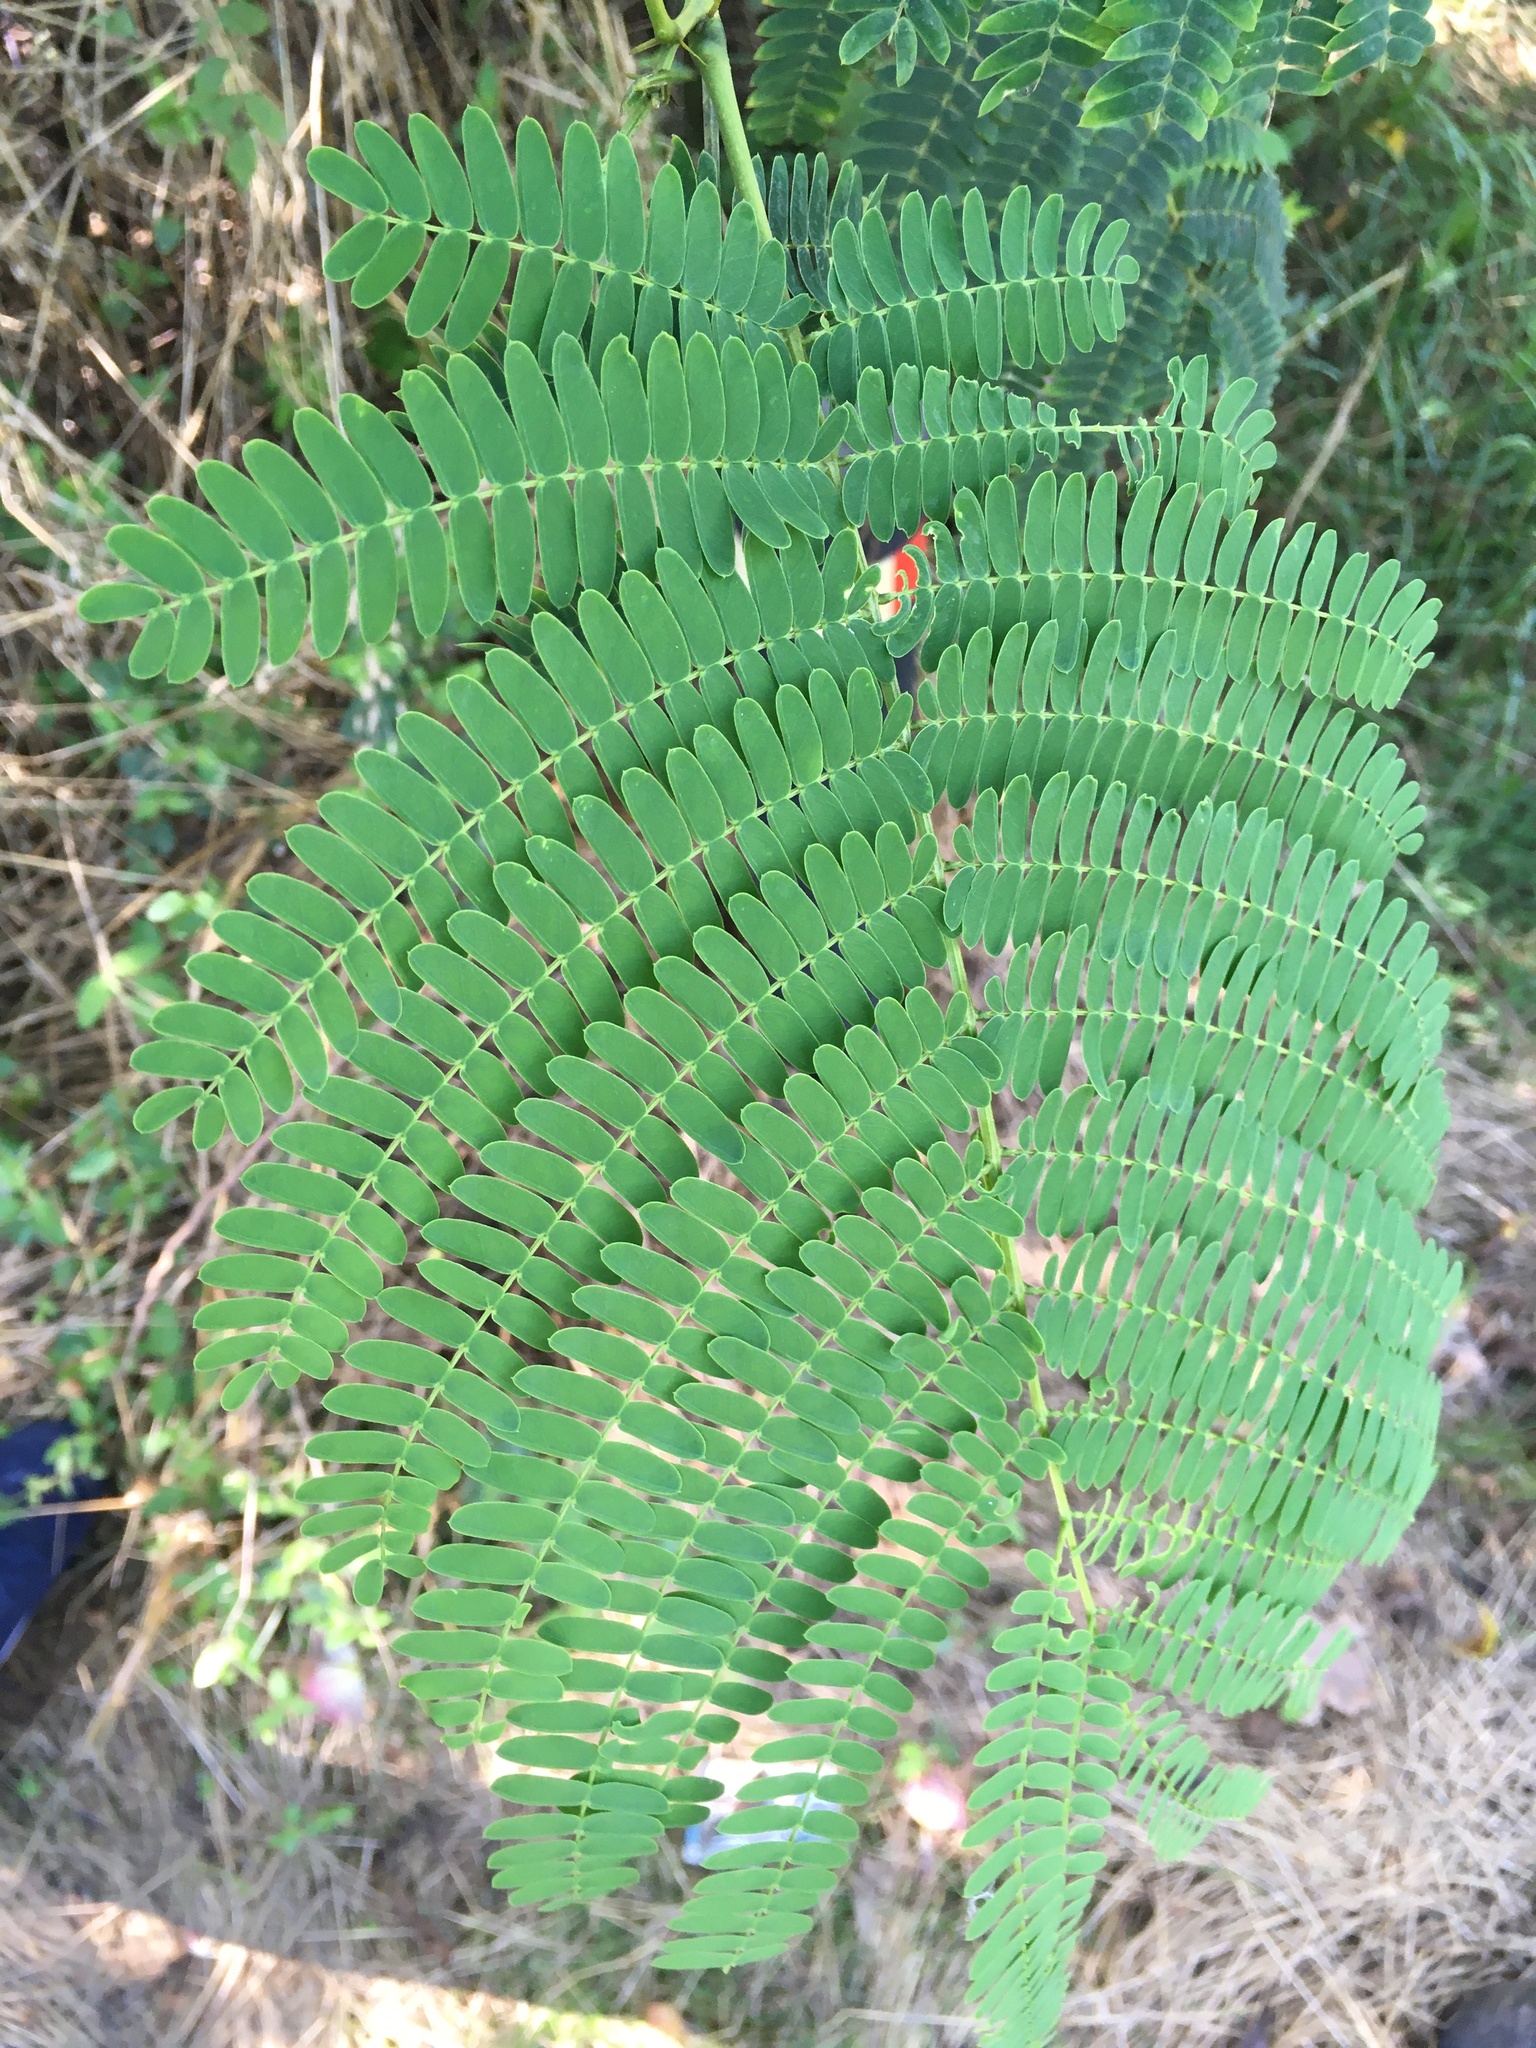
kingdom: Plantae
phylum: Tracheophyta
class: Magnoliopsida
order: Fabales
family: Fabaceae
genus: Albizia
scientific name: Albizia julibrissin
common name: Silktree
